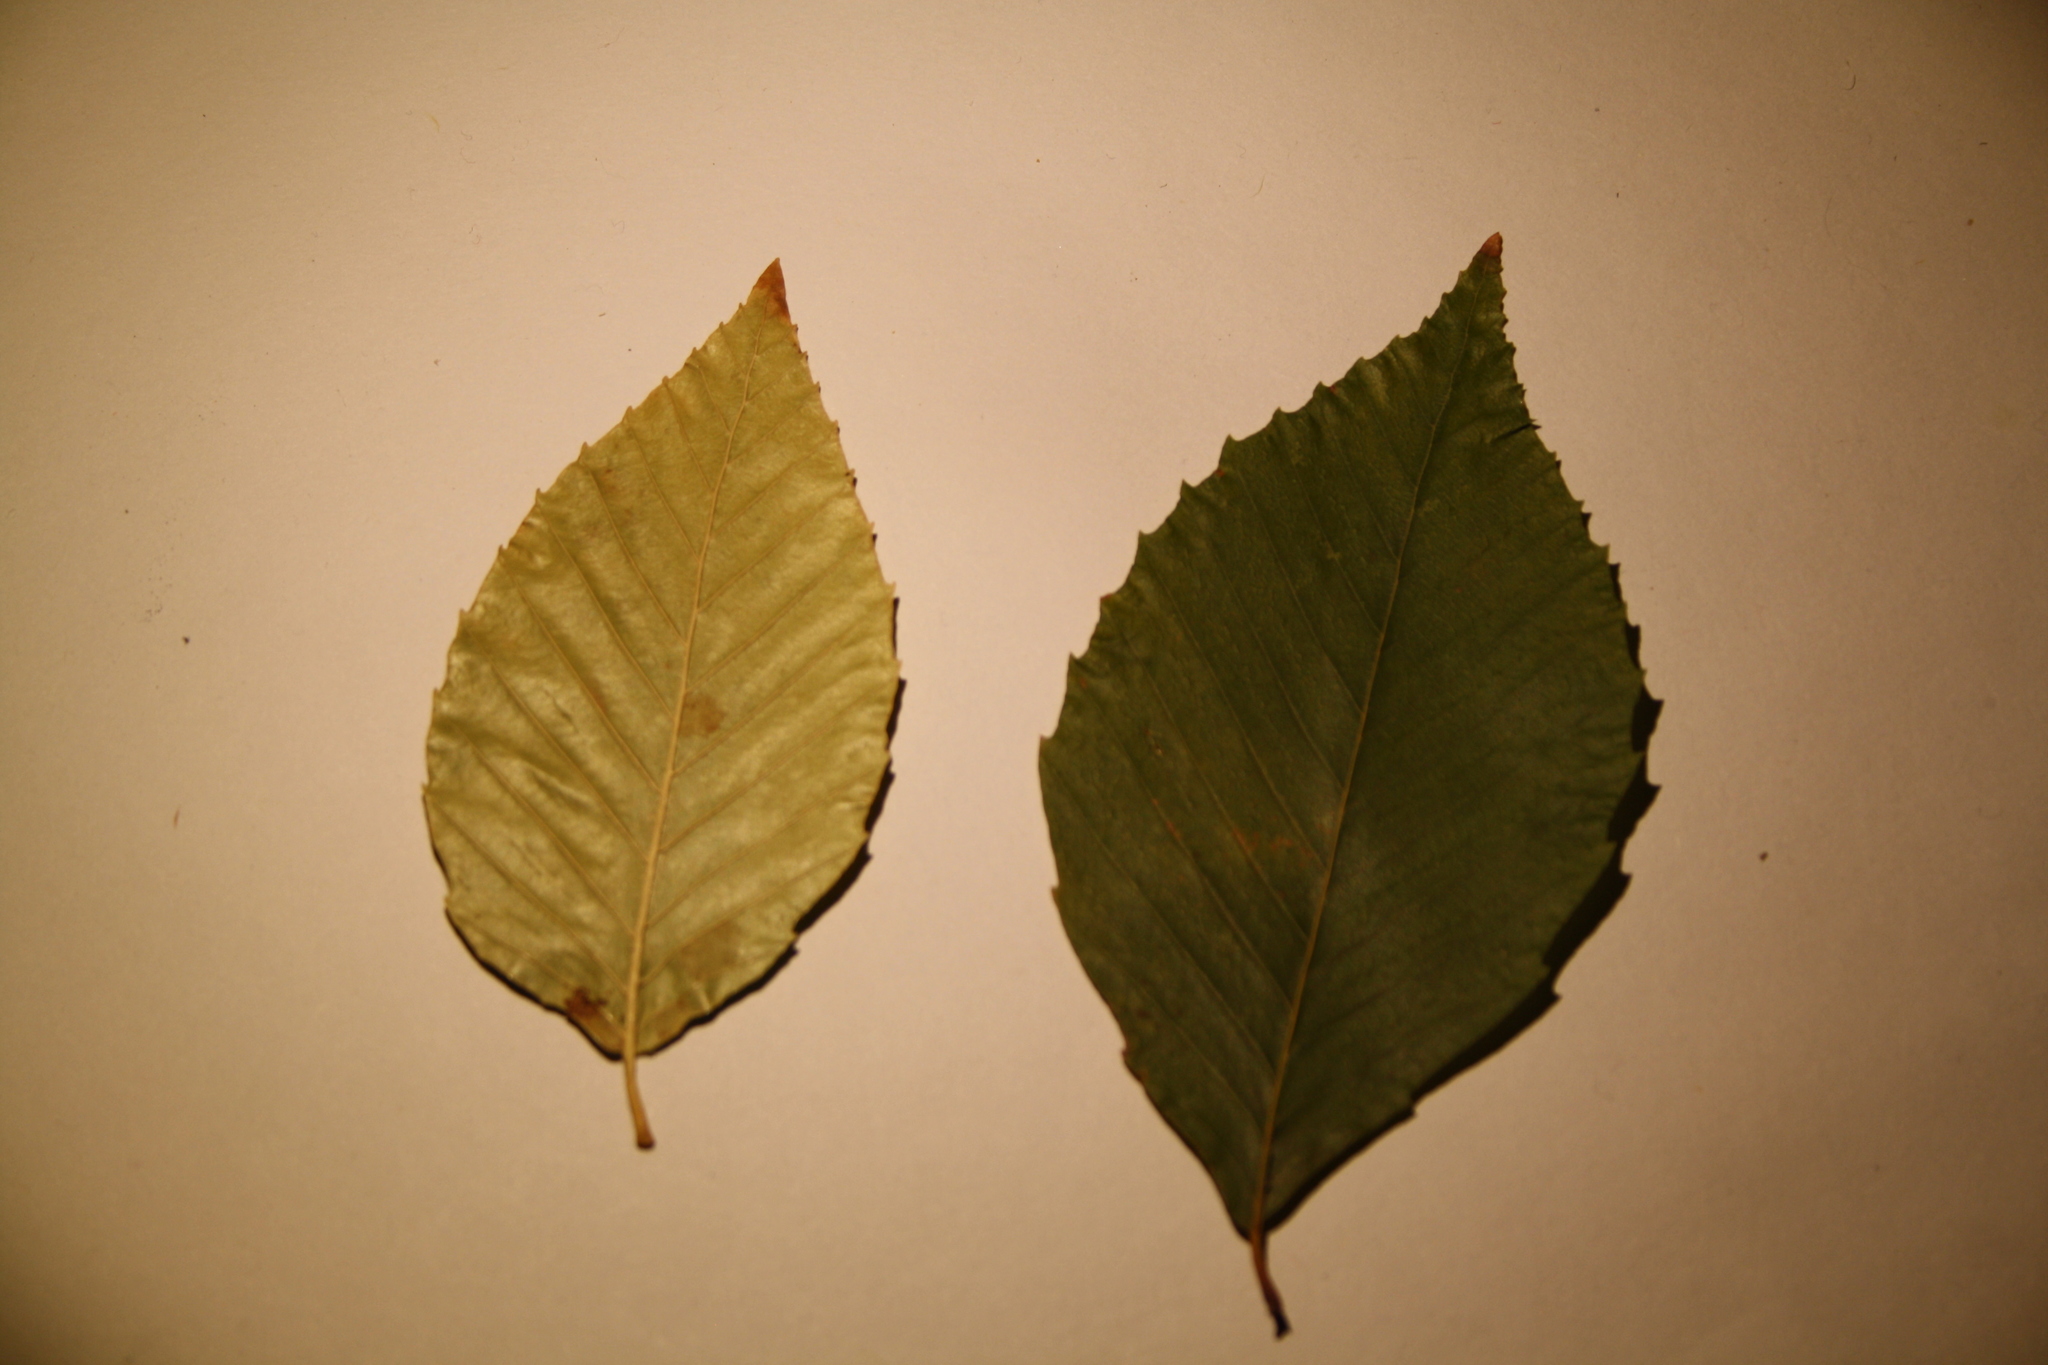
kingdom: Plantae
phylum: Tracheophyta
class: Magnoliopsida
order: Fagales
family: Fagaceae
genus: Fagus
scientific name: Fagus grandifolia
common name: American beech
